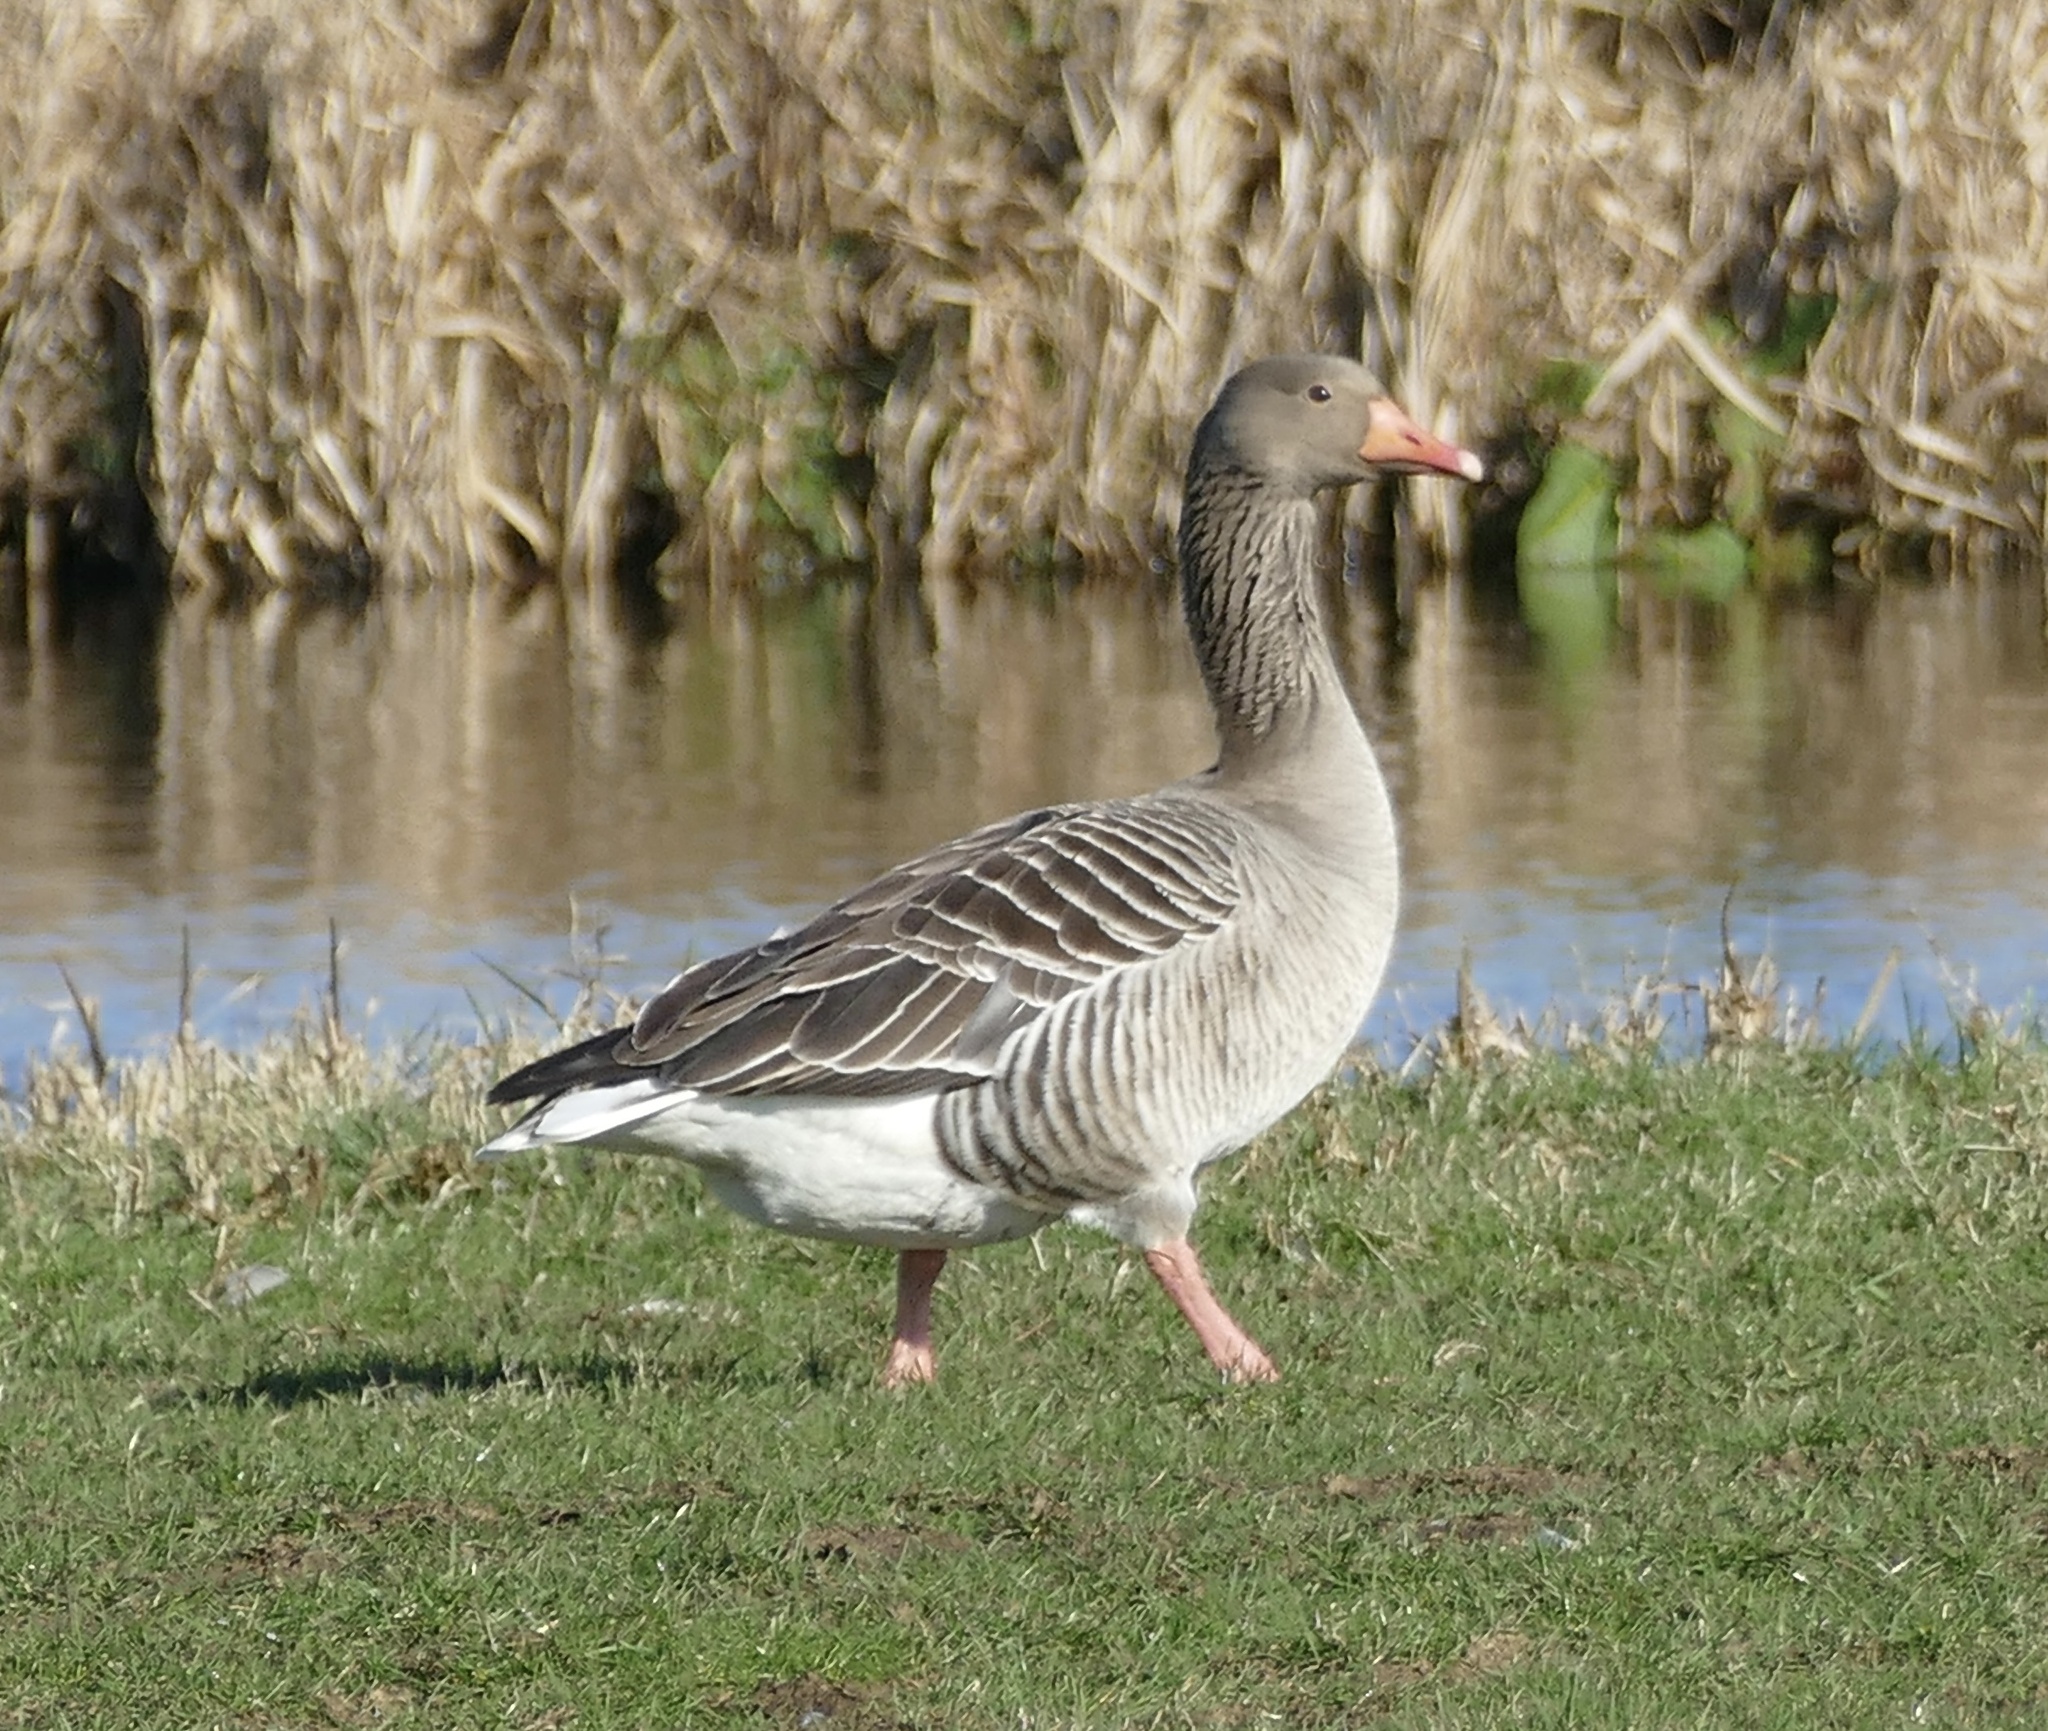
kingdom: Animalia
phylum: Chordata
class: Aves
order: Anseriformes
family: Anatidae
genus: Anser
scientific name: Anser anser
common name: Greylag goose
